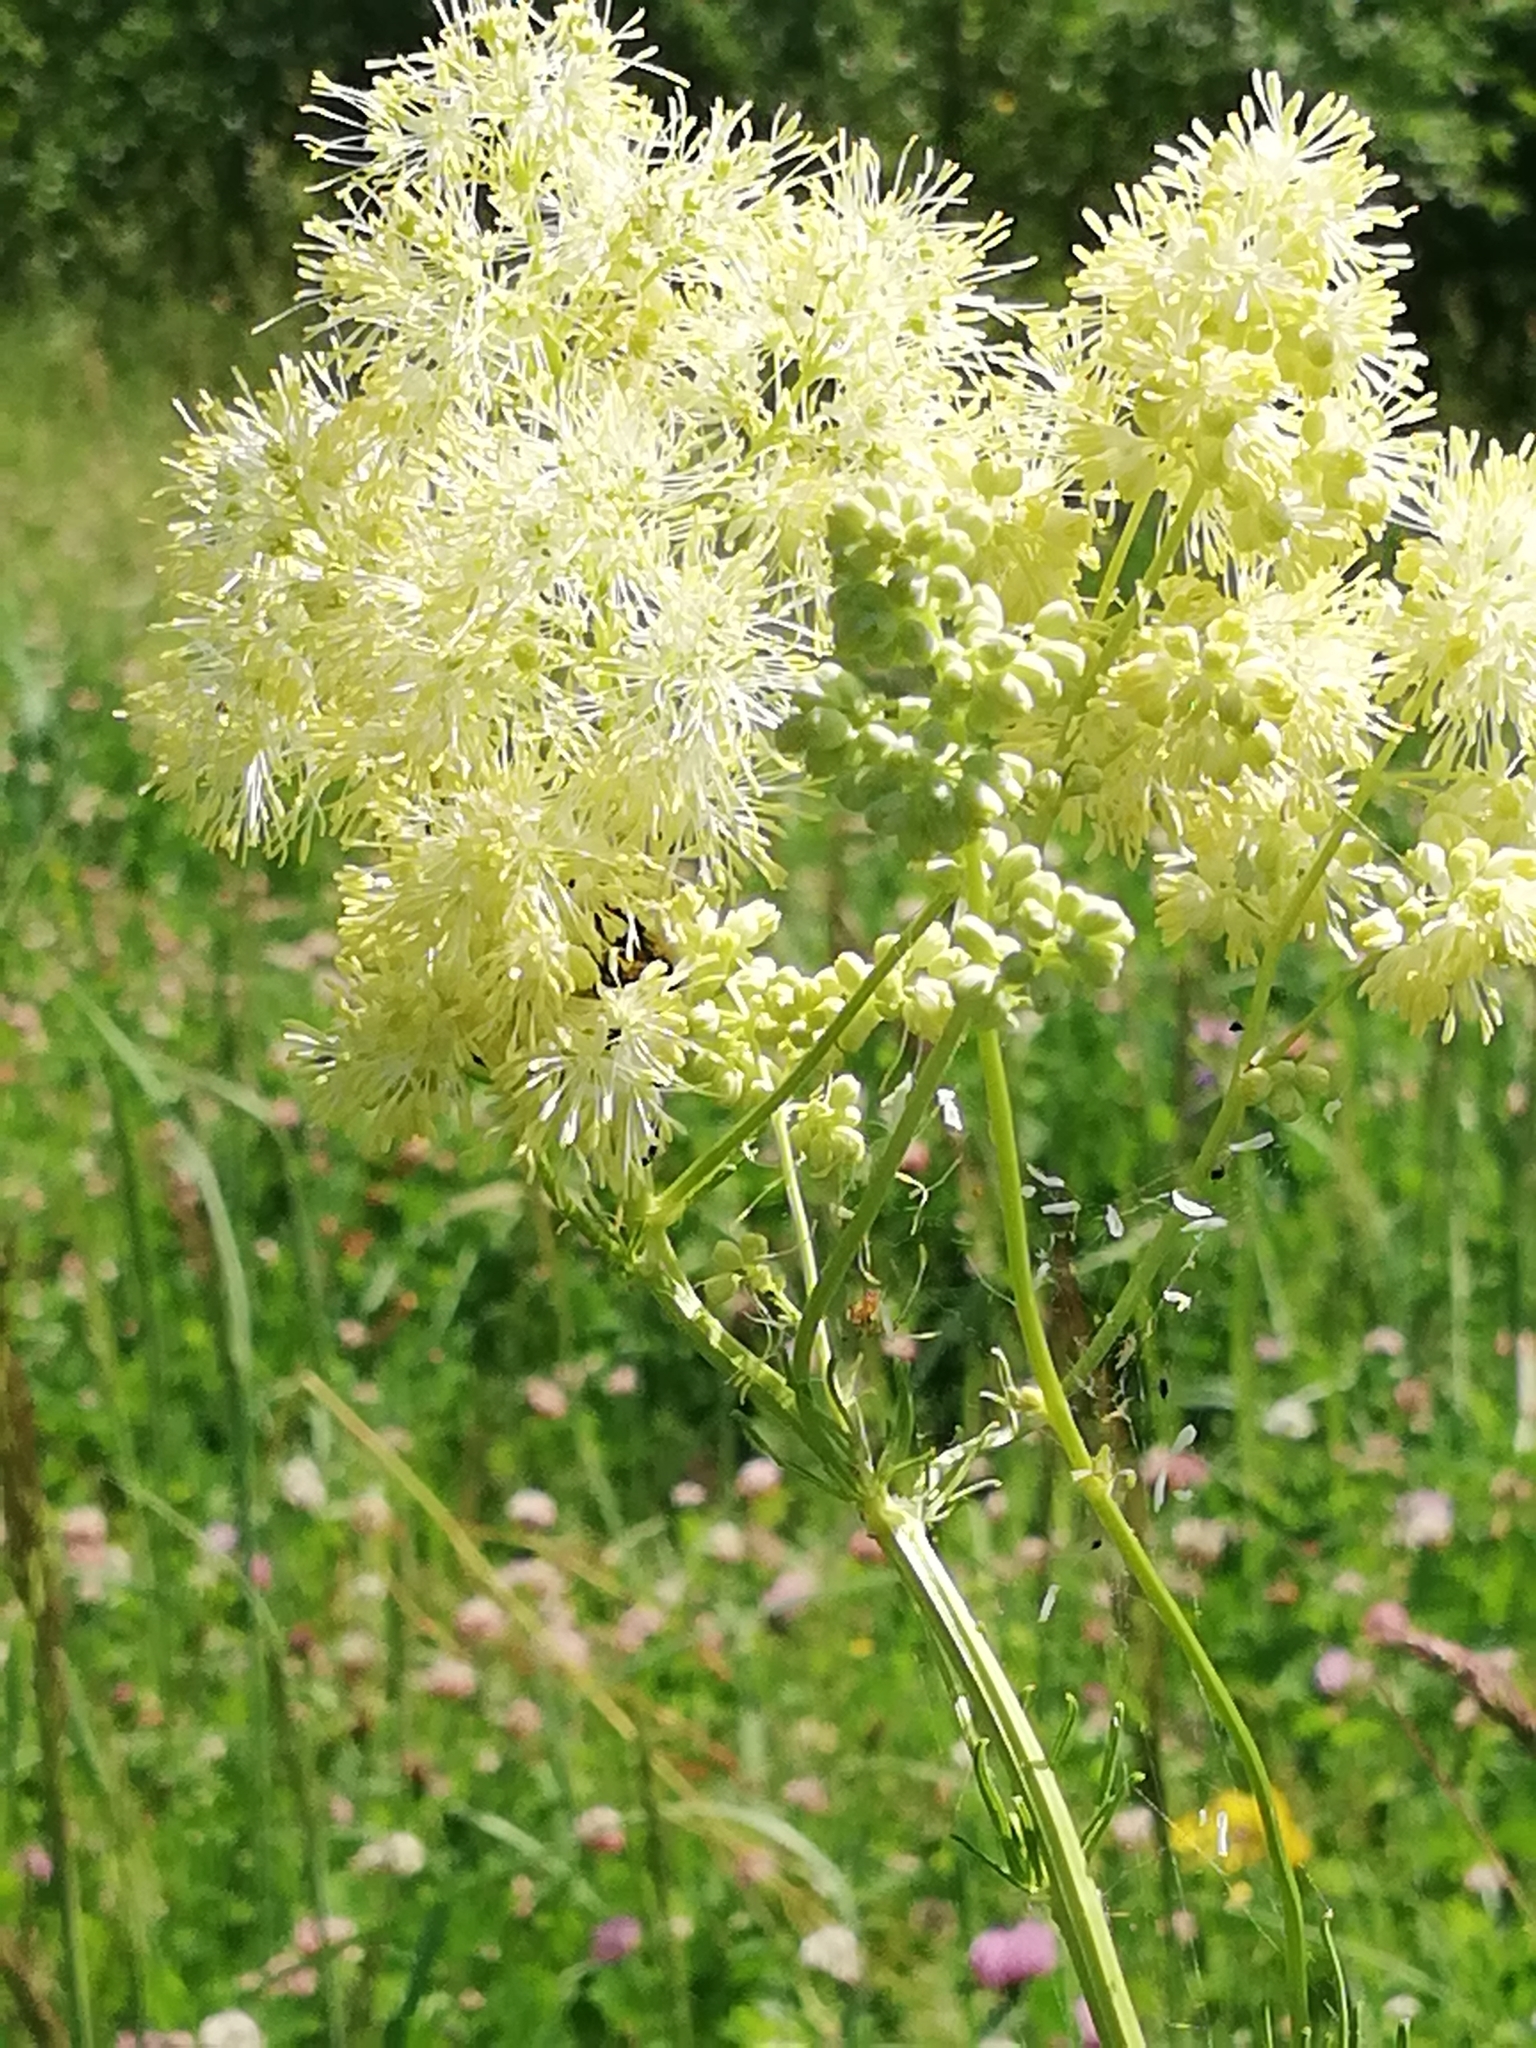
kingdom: Plantae
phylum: Tracheophyta
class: Magnoliopsida
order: Ranunculales
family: Ranunculaceae
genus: Thalictrum
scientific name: Thalictrum lucidum
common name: Shining meadow-rue
